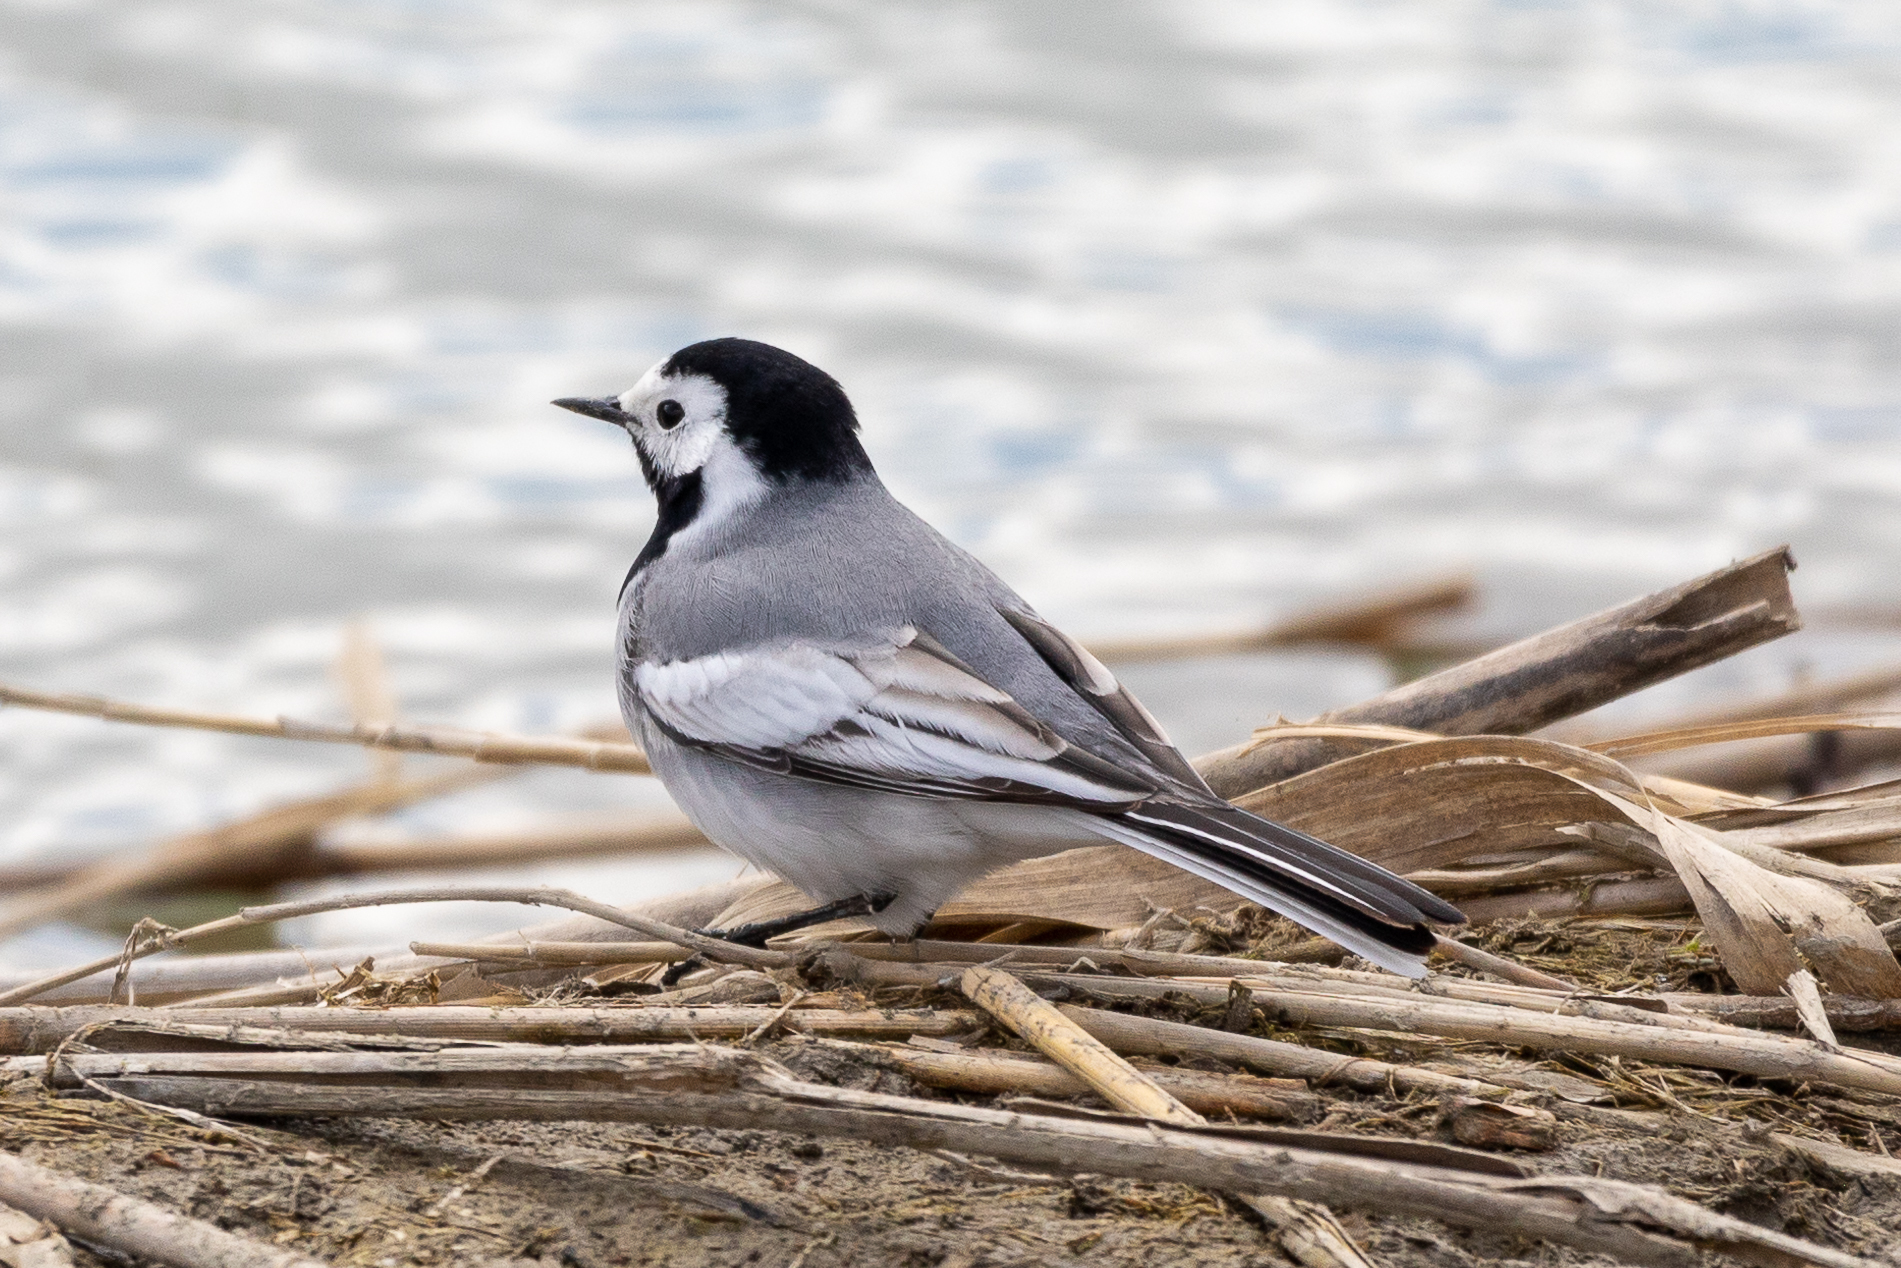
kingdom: Animalia
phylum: Chordata
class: Aves
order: Passeriformes
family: Motacillidae
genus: Motacilla
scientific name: Motacilla alba
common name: White wagtail
